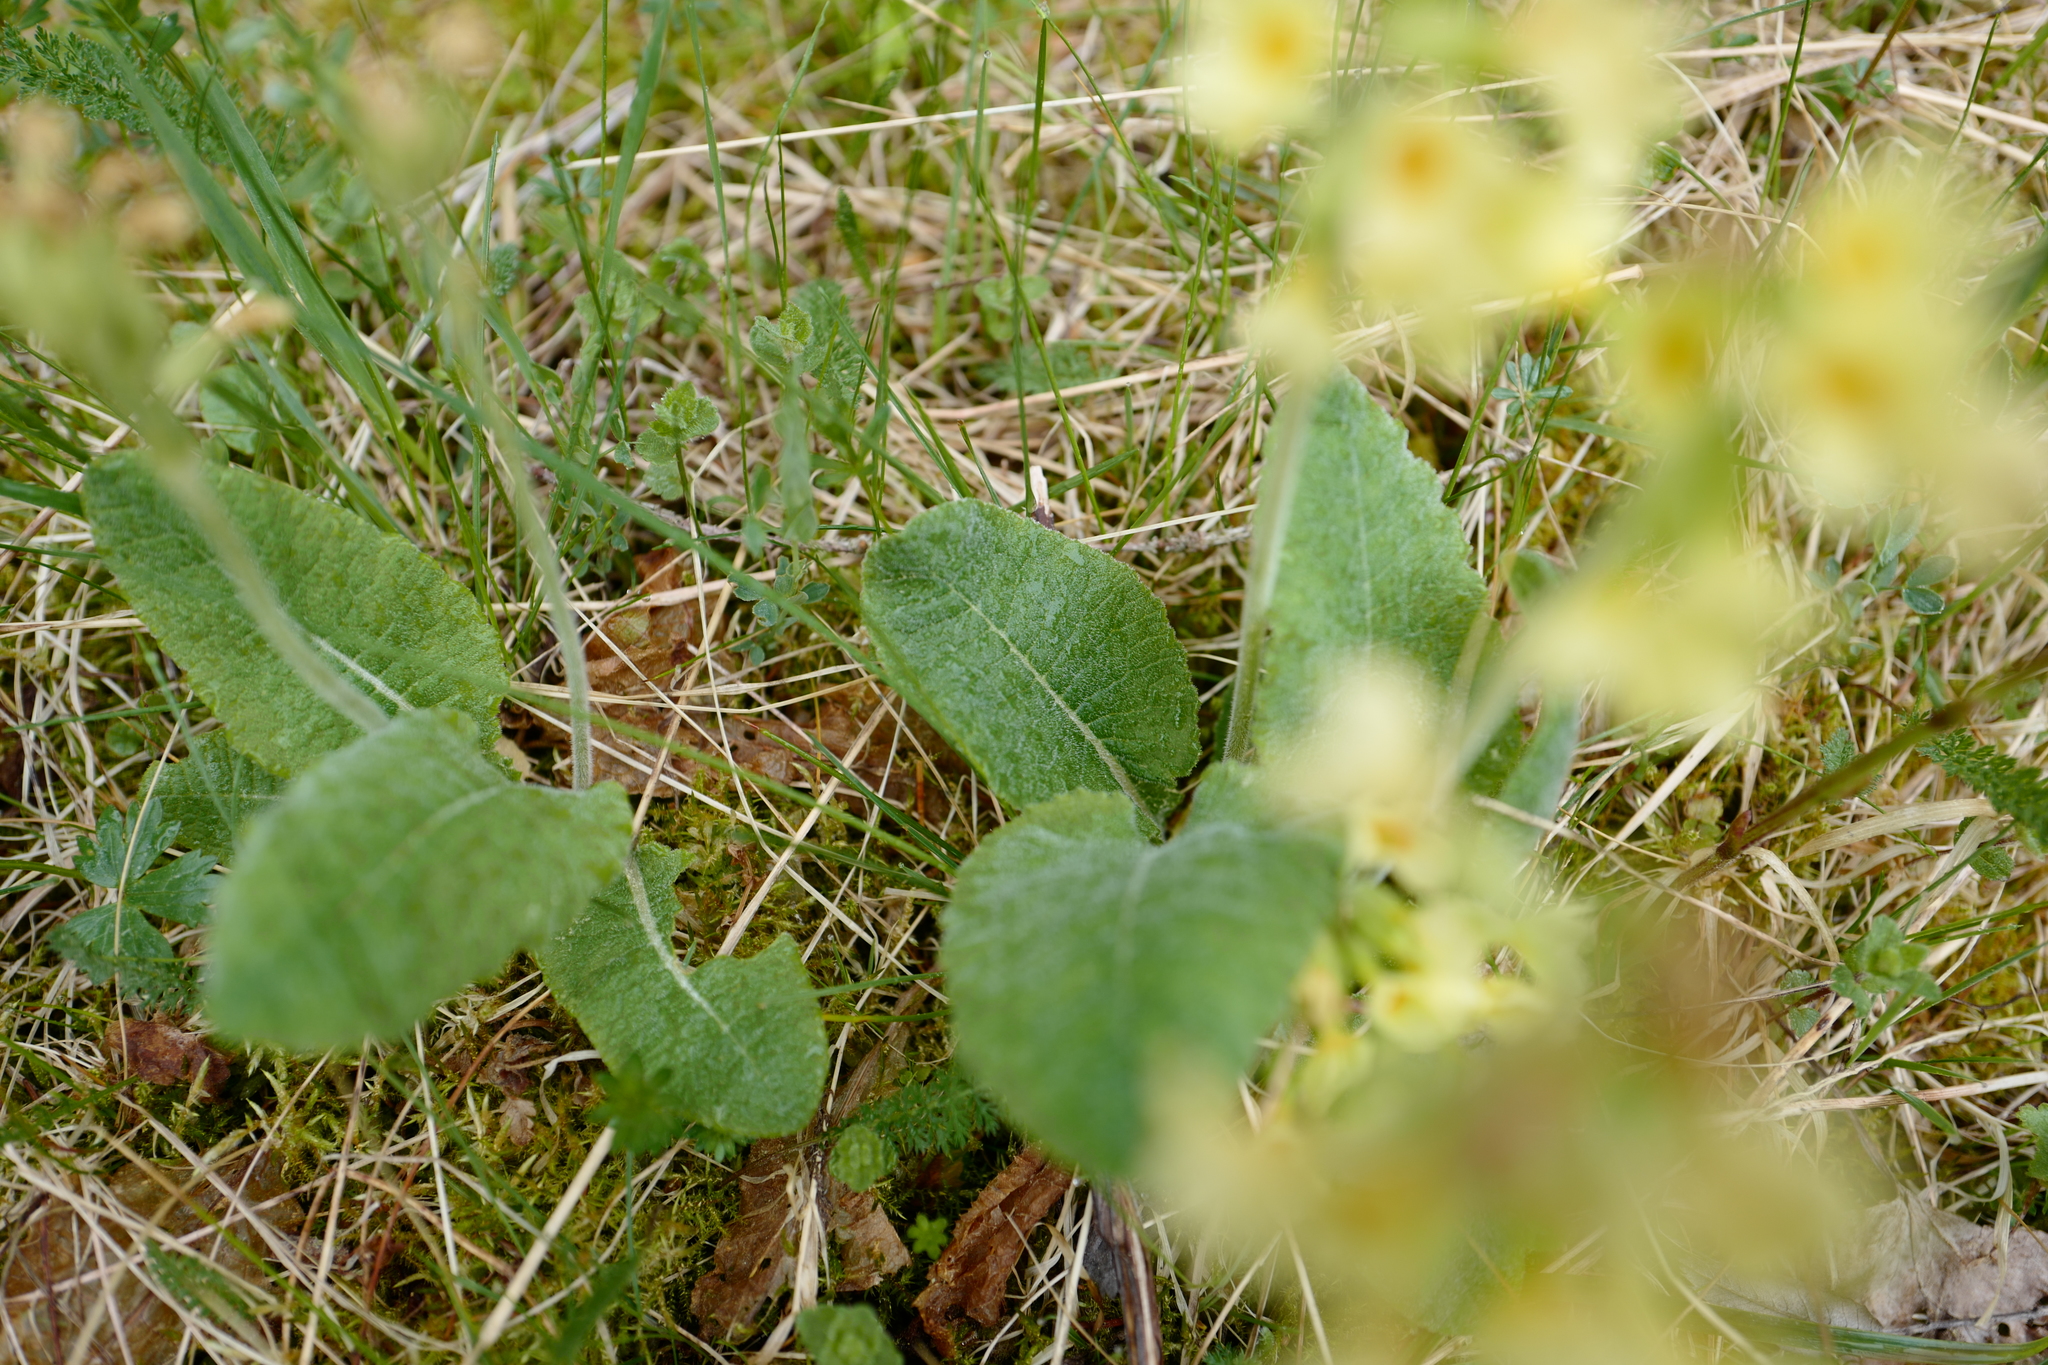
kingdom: Plantae
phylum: Tracheophyta
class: Magnoliopsida
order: Ericales
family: Primulaceae
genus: Primula
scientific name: Primula elatior
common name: Oxlip
